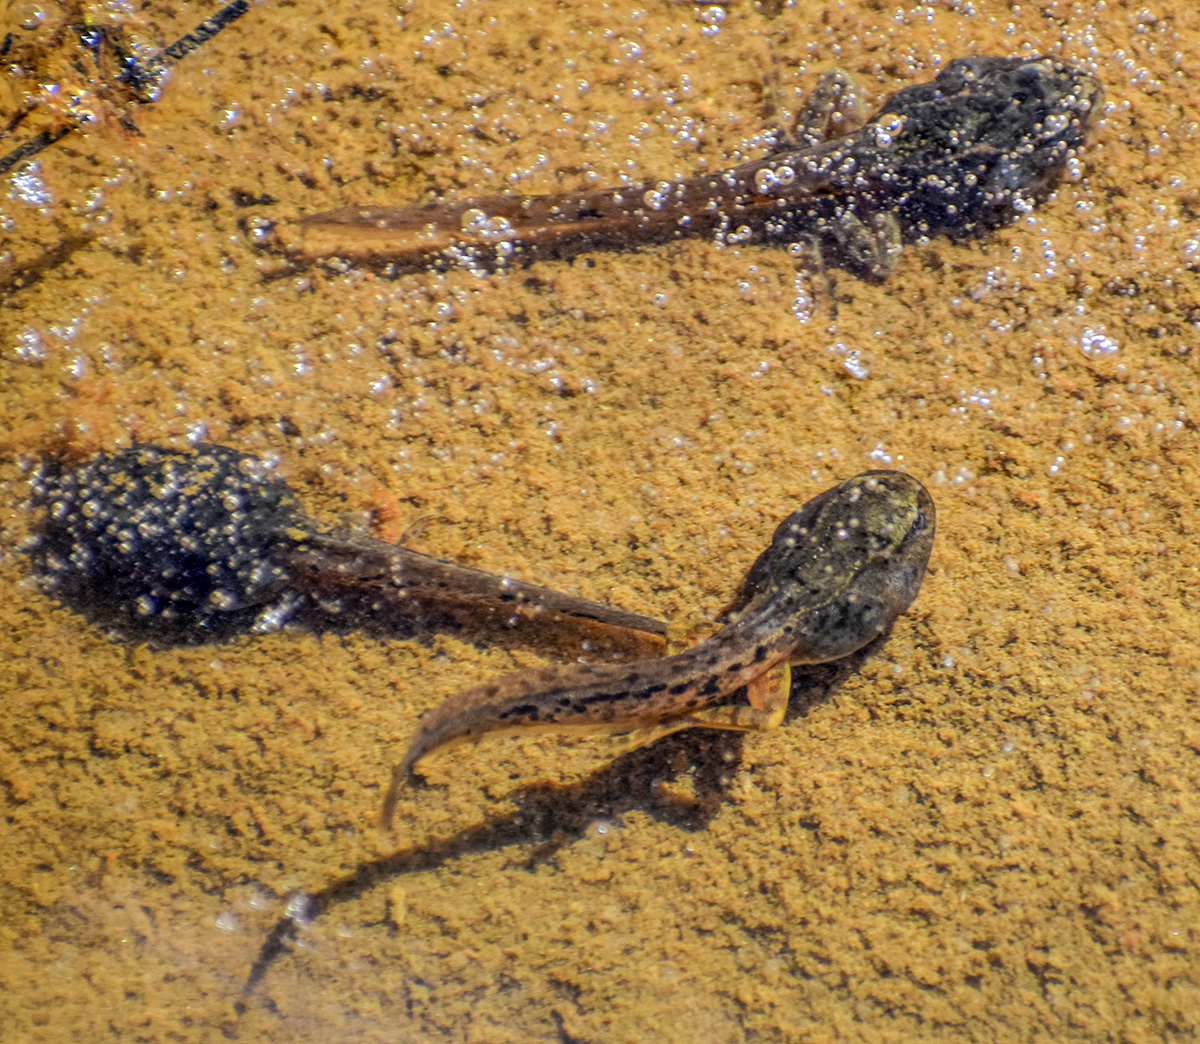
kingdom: Animalia
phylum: Chordata
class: Amphibia
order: Anura
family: Ranidae
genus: Rana
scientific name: Rana temporaria
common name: Common frog
